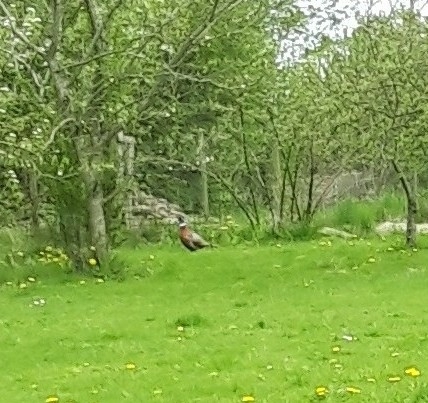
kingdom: Animalia
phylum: Chordata
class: Aves
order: Galliformes
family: Phasianidae
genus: Phasianus
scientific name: Phasianus colchicus
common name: Common pheasant
